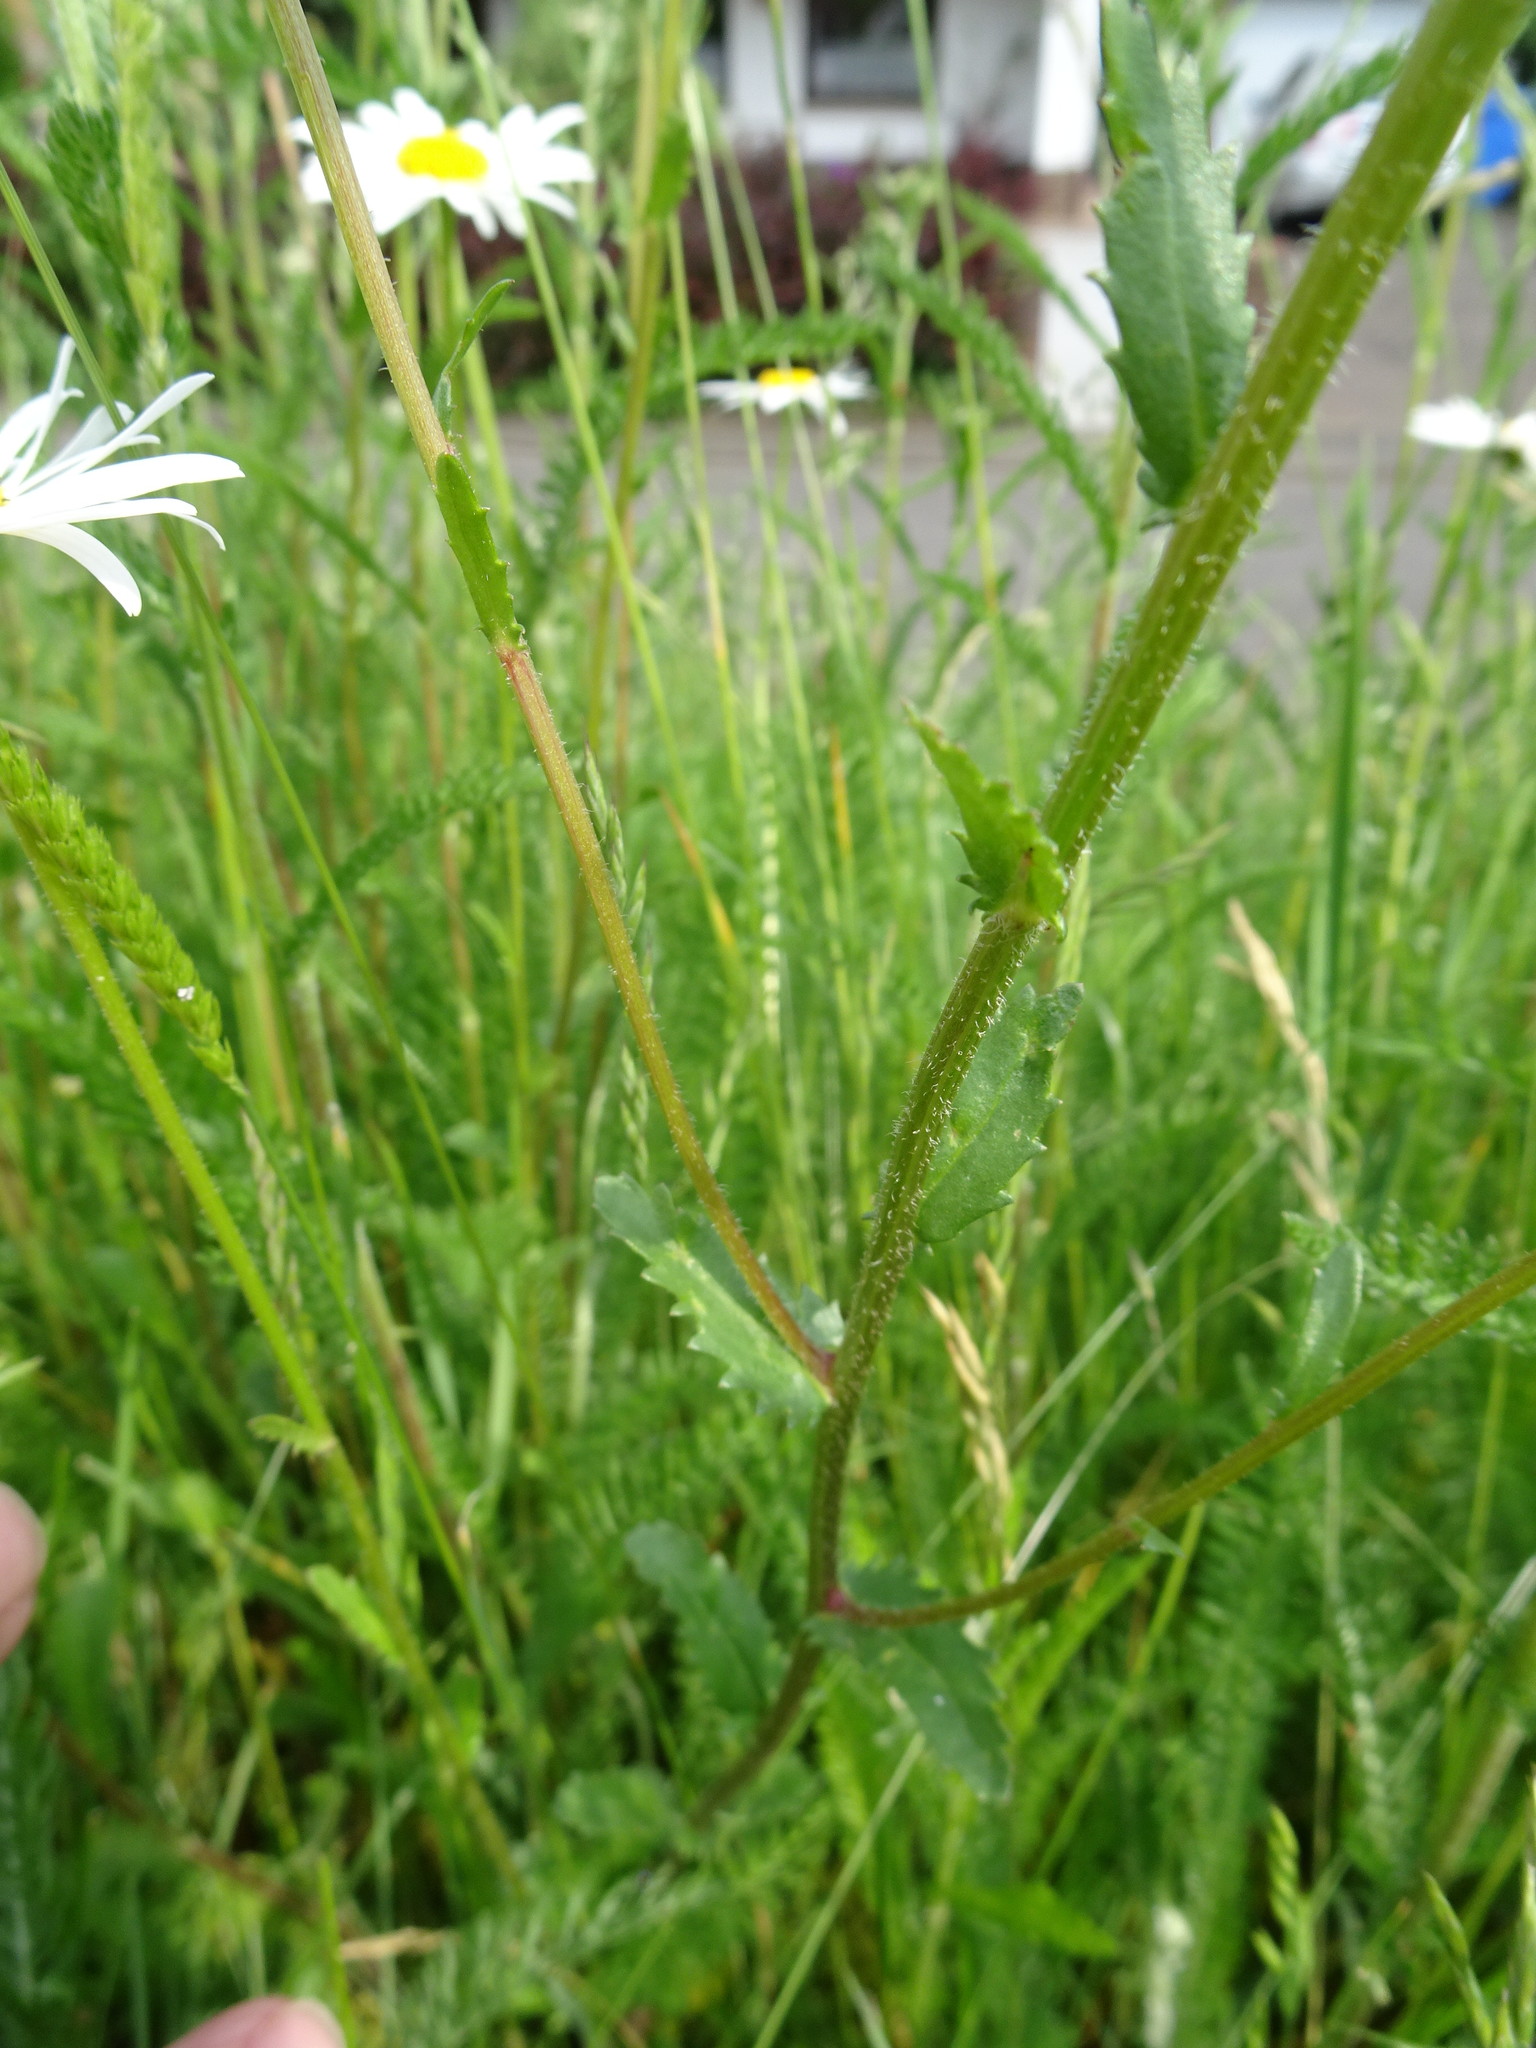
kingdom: Plantae
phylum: Tracheophyta
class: Magnoliopsida
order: Asterales
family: Asteraceae
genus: Leucanthemum
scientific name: Leucanthemum vulgare
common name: Oxeye daisy
